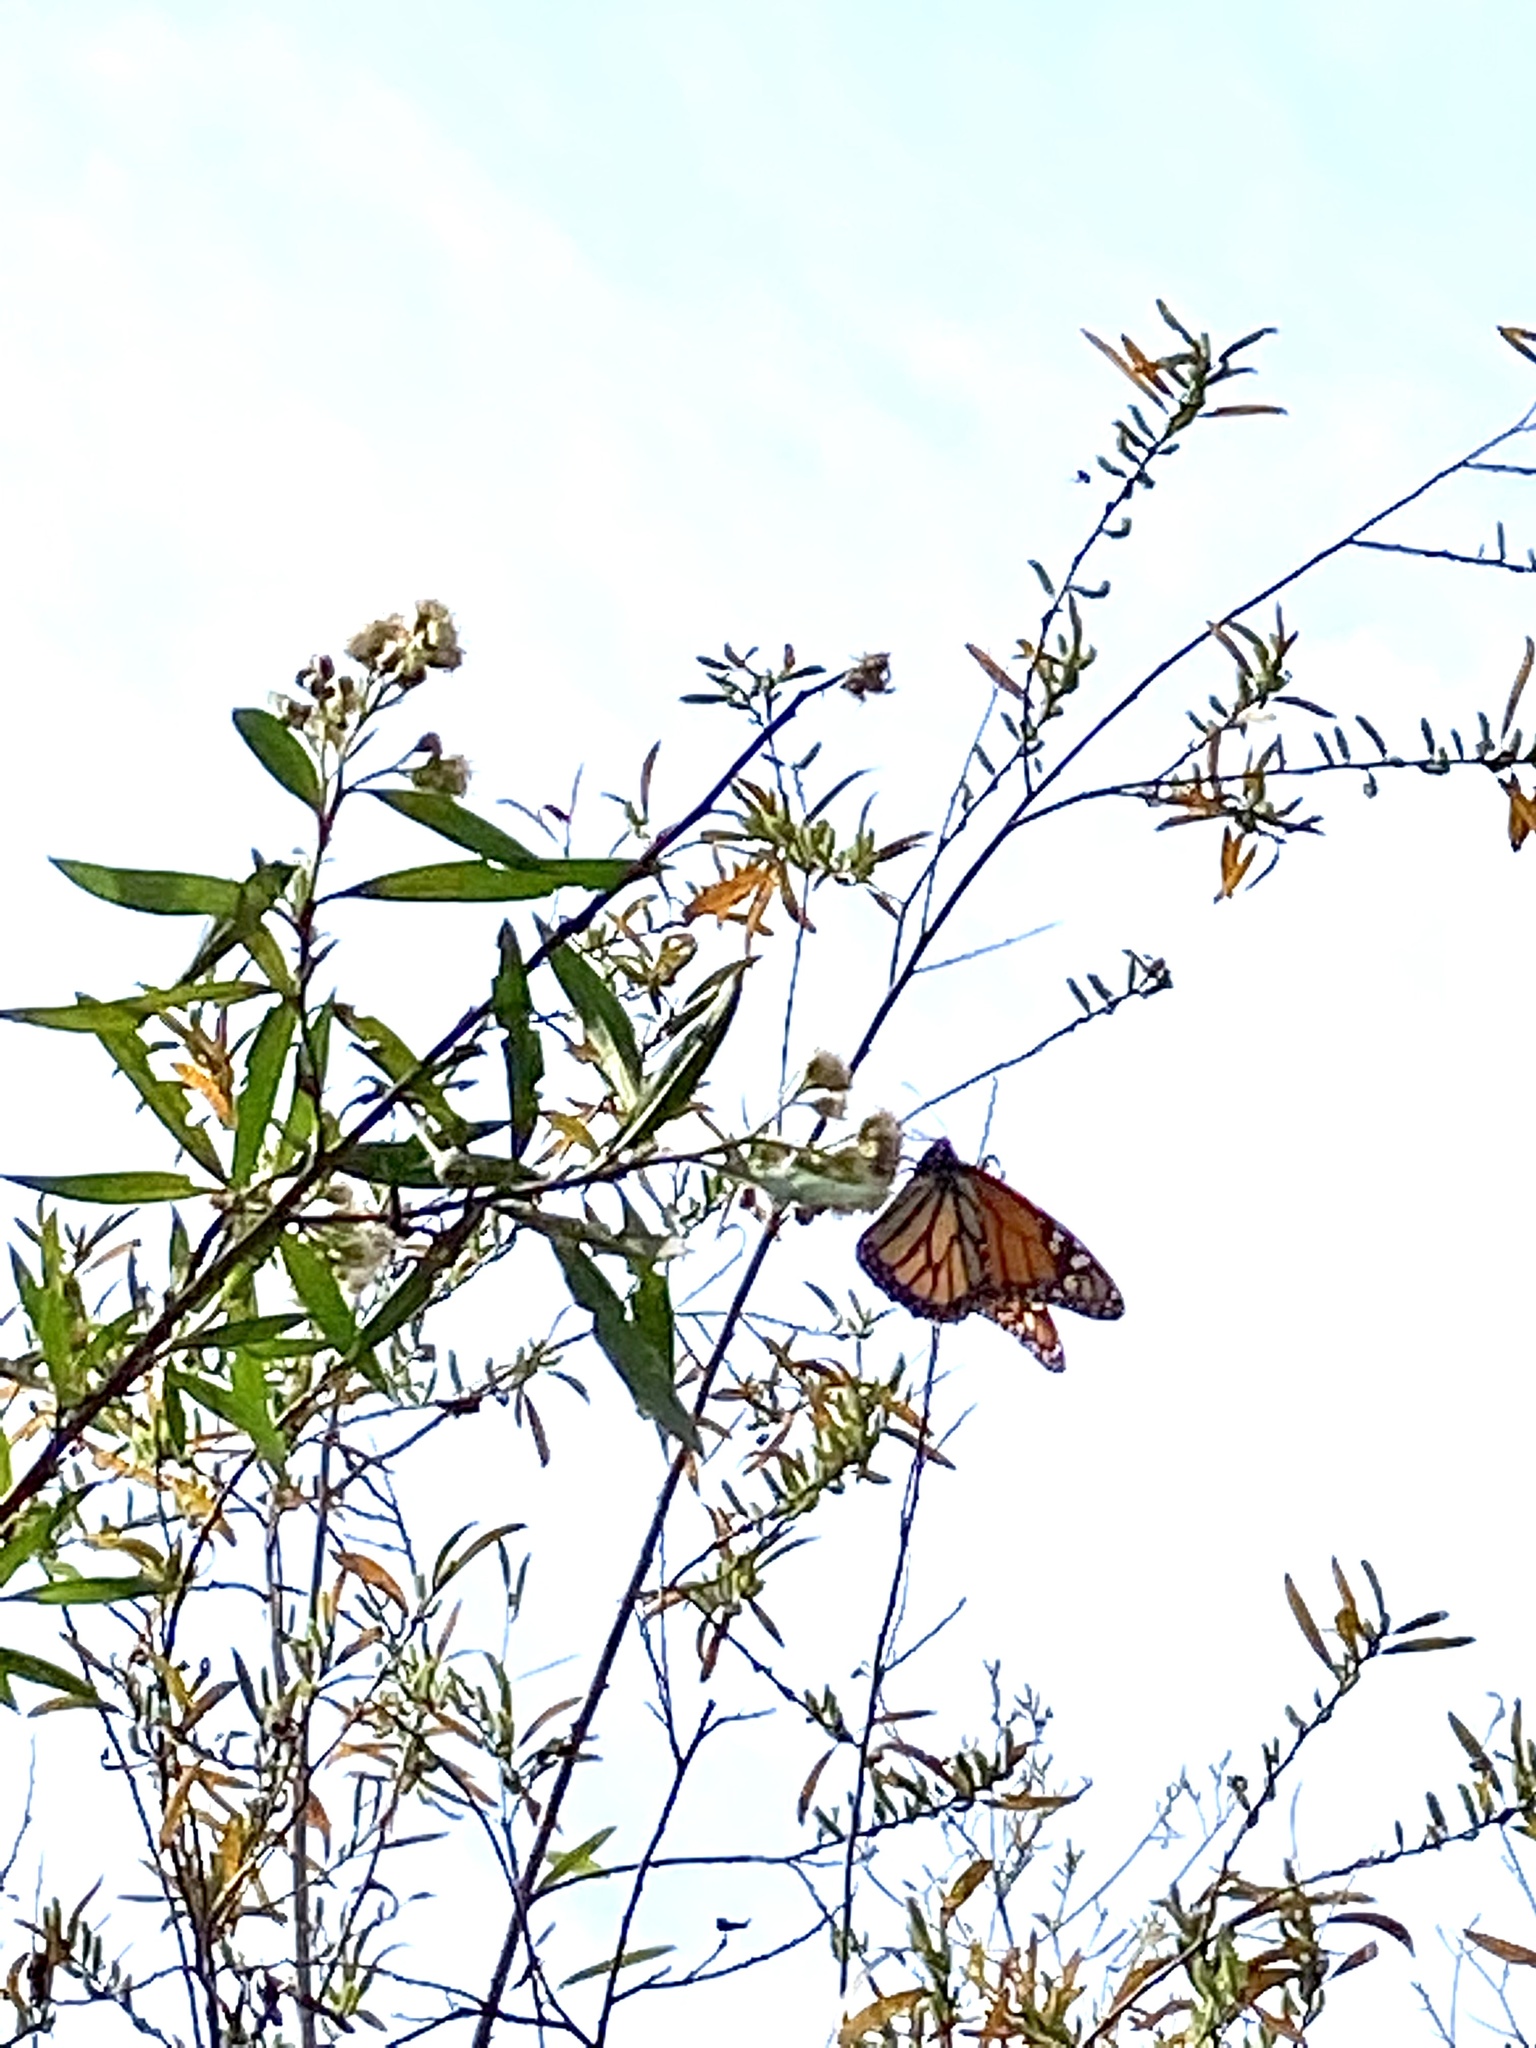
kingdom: Animalia
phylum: Arthropoda
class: Insecta
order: Lepidoptera
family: Nymphalidae
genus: Danaus
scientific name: Danaus plexippus
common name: Monarch
